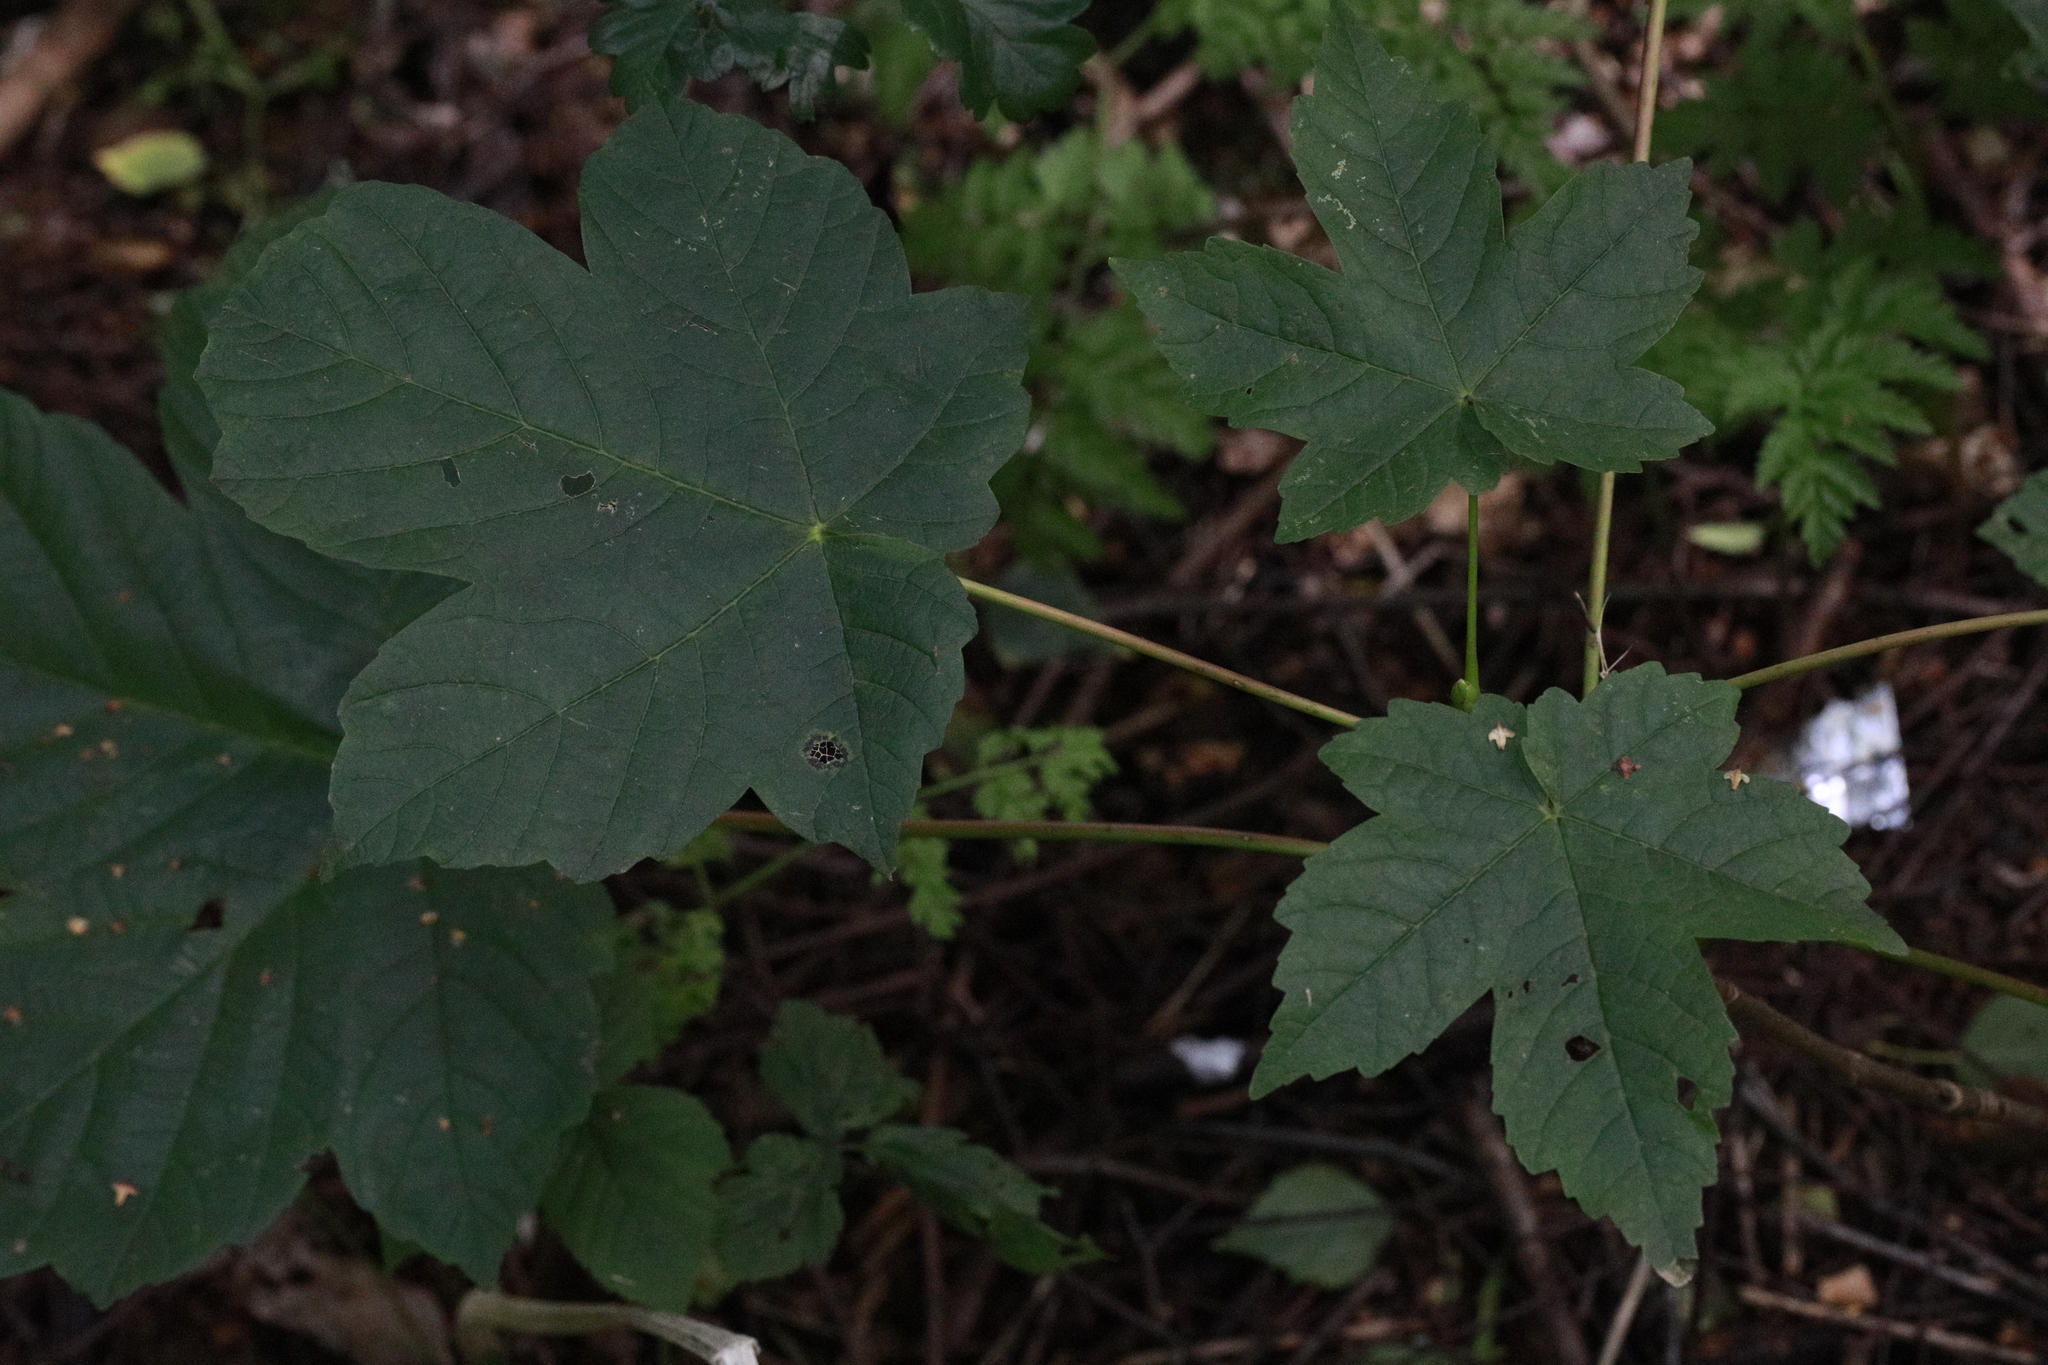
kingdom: Fungi
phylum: Ascomycota
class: Leotiomycetes
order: Rhytismatales
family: Rhytismataceae
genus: Rhytisma
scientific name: Rhytisma acerinum
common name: European tar spot
